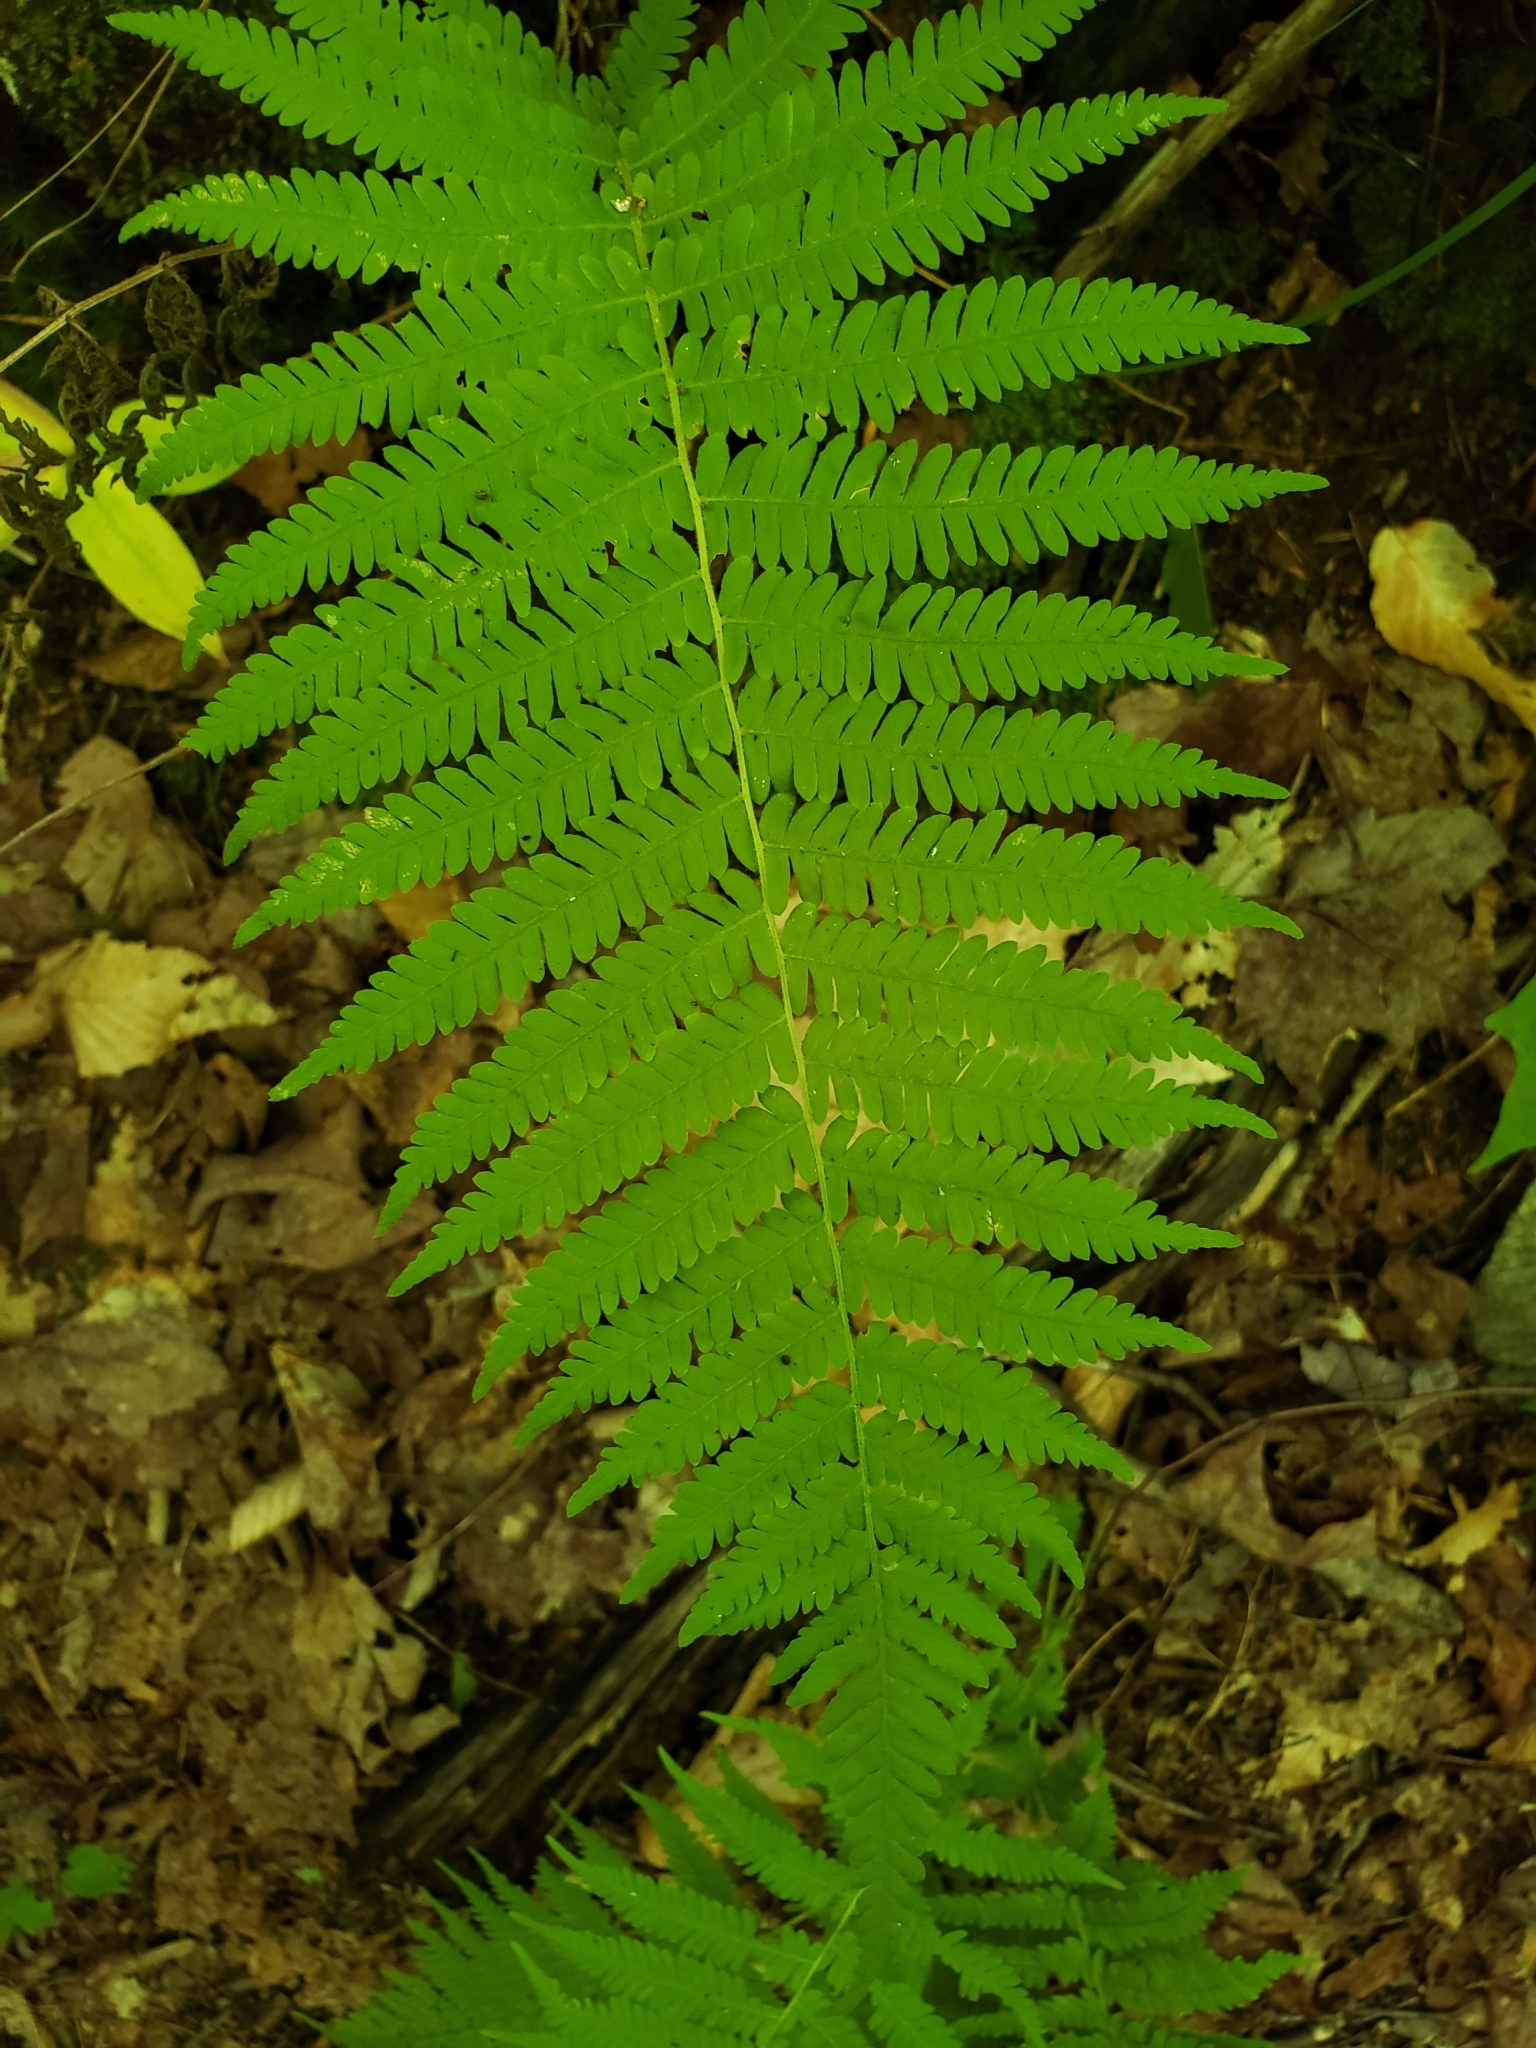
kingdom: Plantae
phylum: Tracheophyta
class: Polypodiopsida
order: Polypodiales
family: Thelypteridaceae
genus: Amauropelta
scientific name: Amauropelta noveboracensis
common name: New york fern
